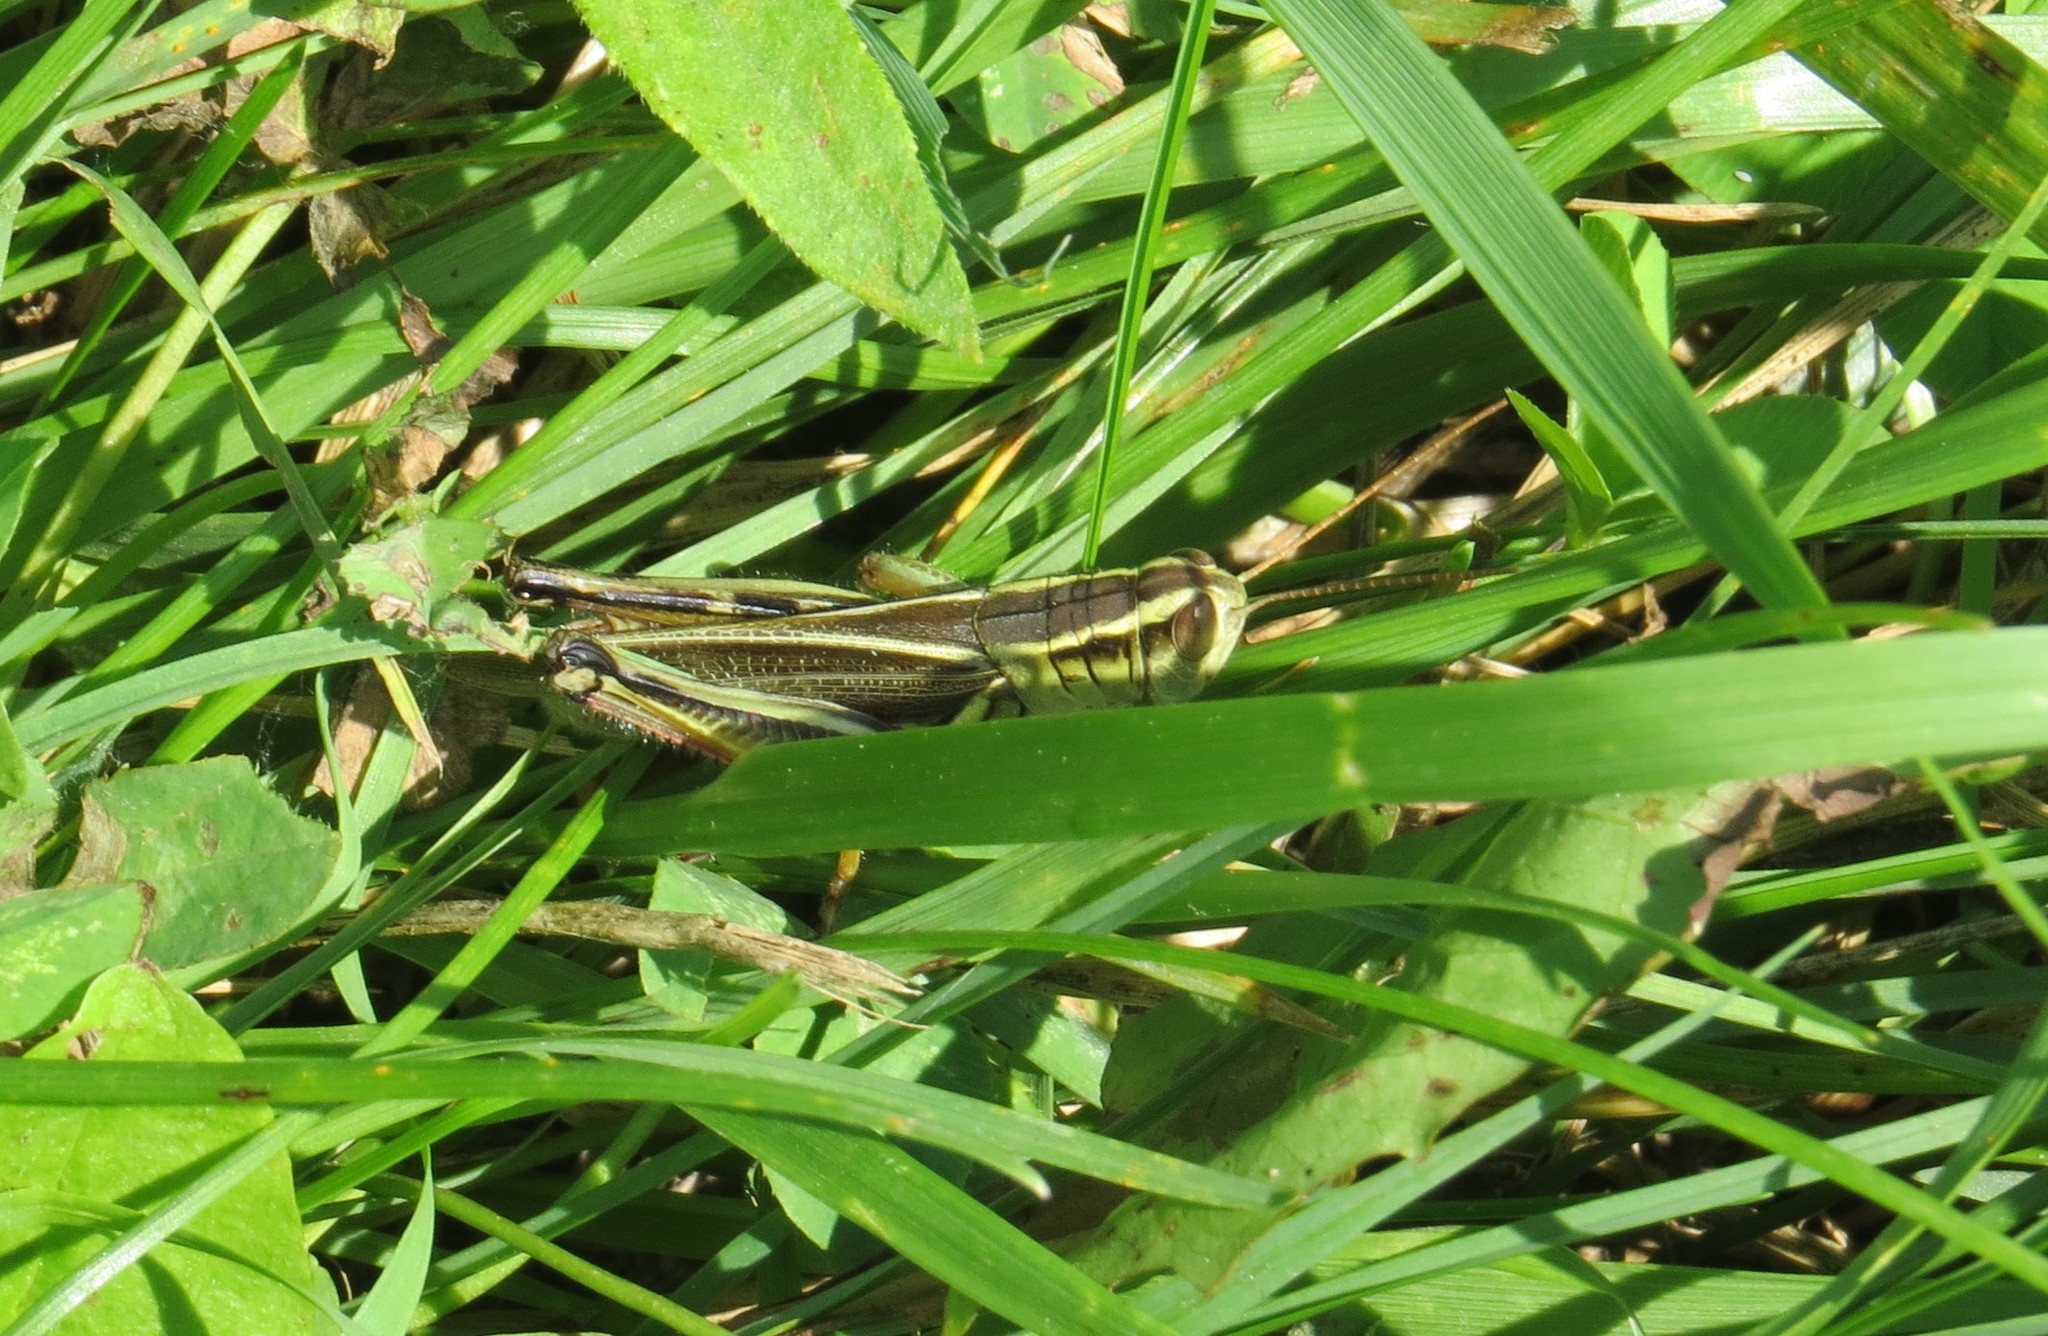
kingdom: Animalia
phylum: Arthropoda
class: Insecta
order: Orthoptera
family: Acrididae
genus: Melanoplus
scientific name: Melanoplus bivittatus
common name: Two-striped grasshopper
